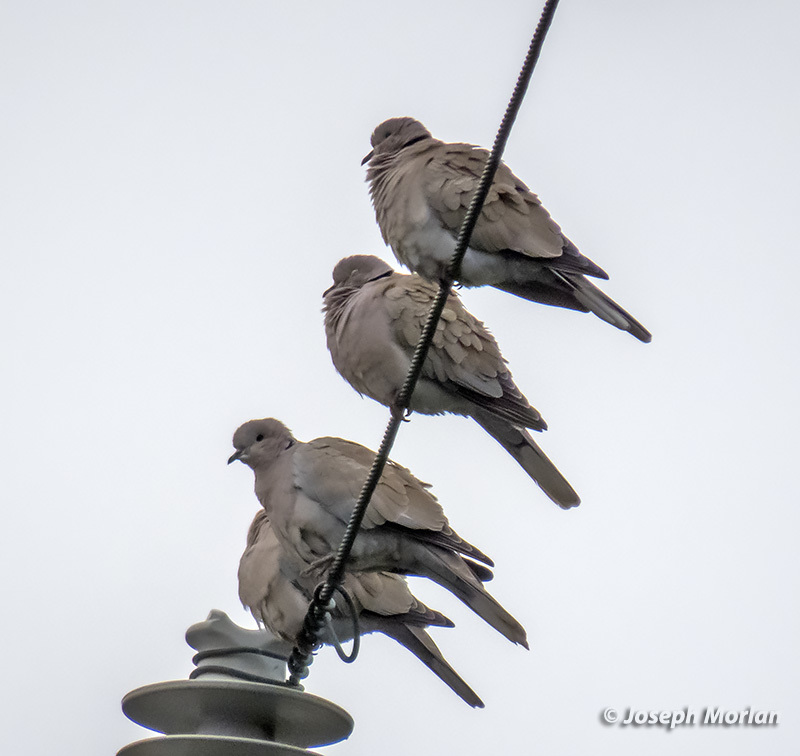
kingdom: Animalia
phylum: Chordata
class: Aves
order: Columbiformes
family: Columbidae
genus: Streptopelia
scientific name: Streptopelia decaocto
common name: Eurasian collared dove
